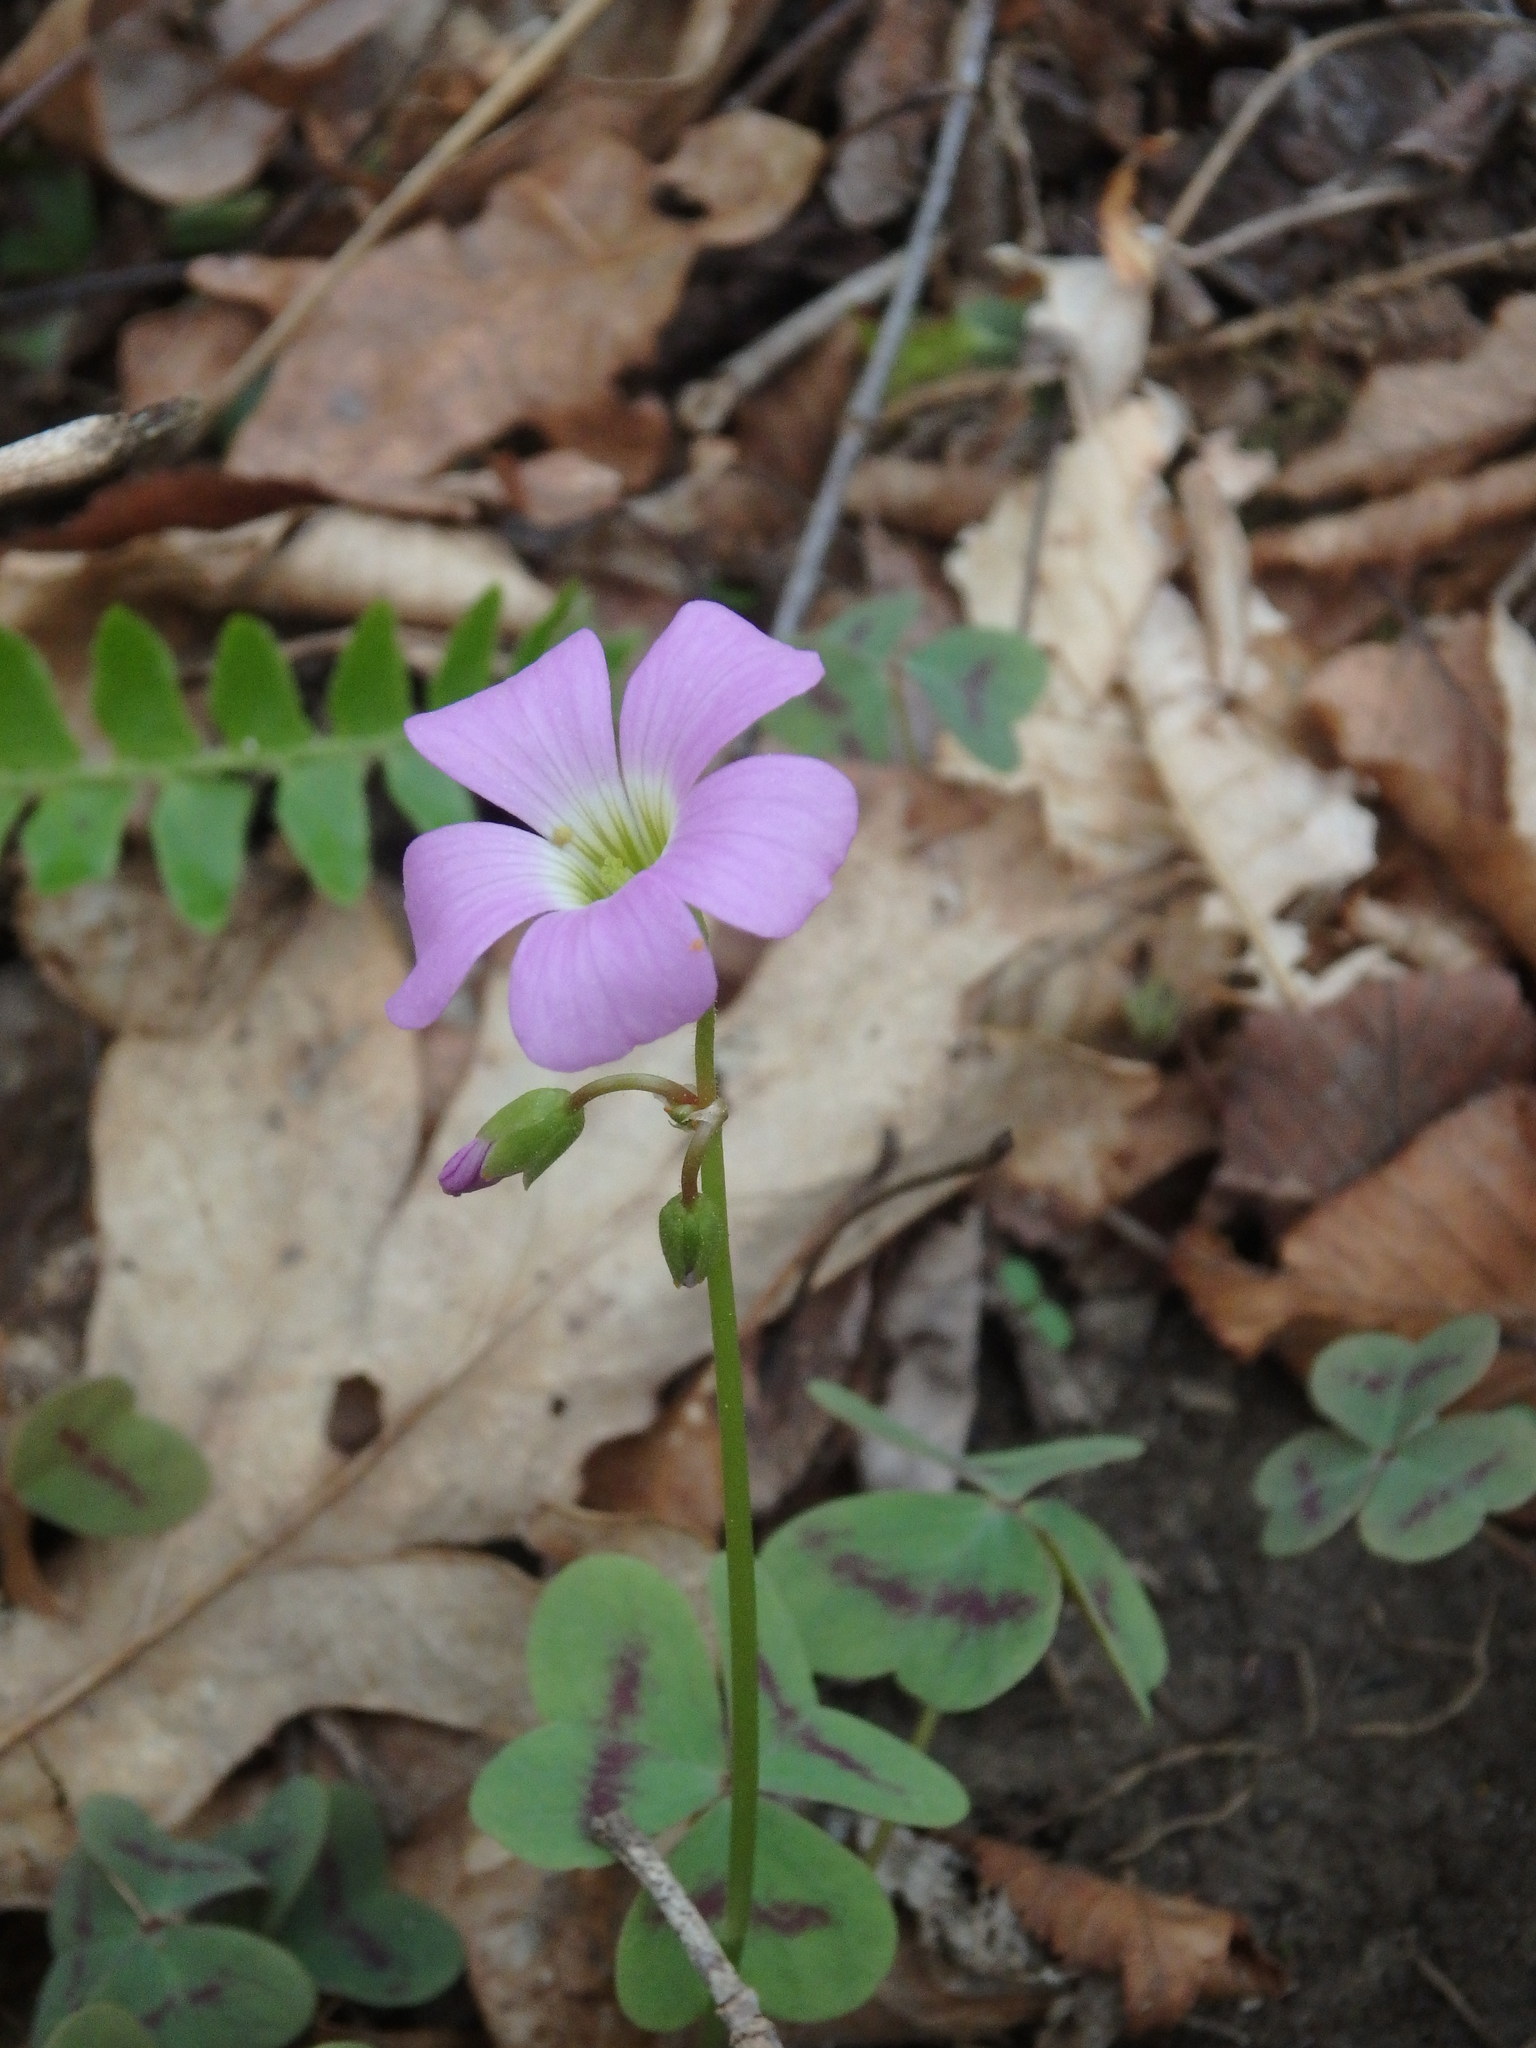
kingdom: Plantae
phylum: Tracheophyta
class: Magnoliopsida
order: Oxalidales
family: Oxalidaceae
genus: Oxalis
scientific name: Oxalis violacea
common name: Violet wood-sorrel
